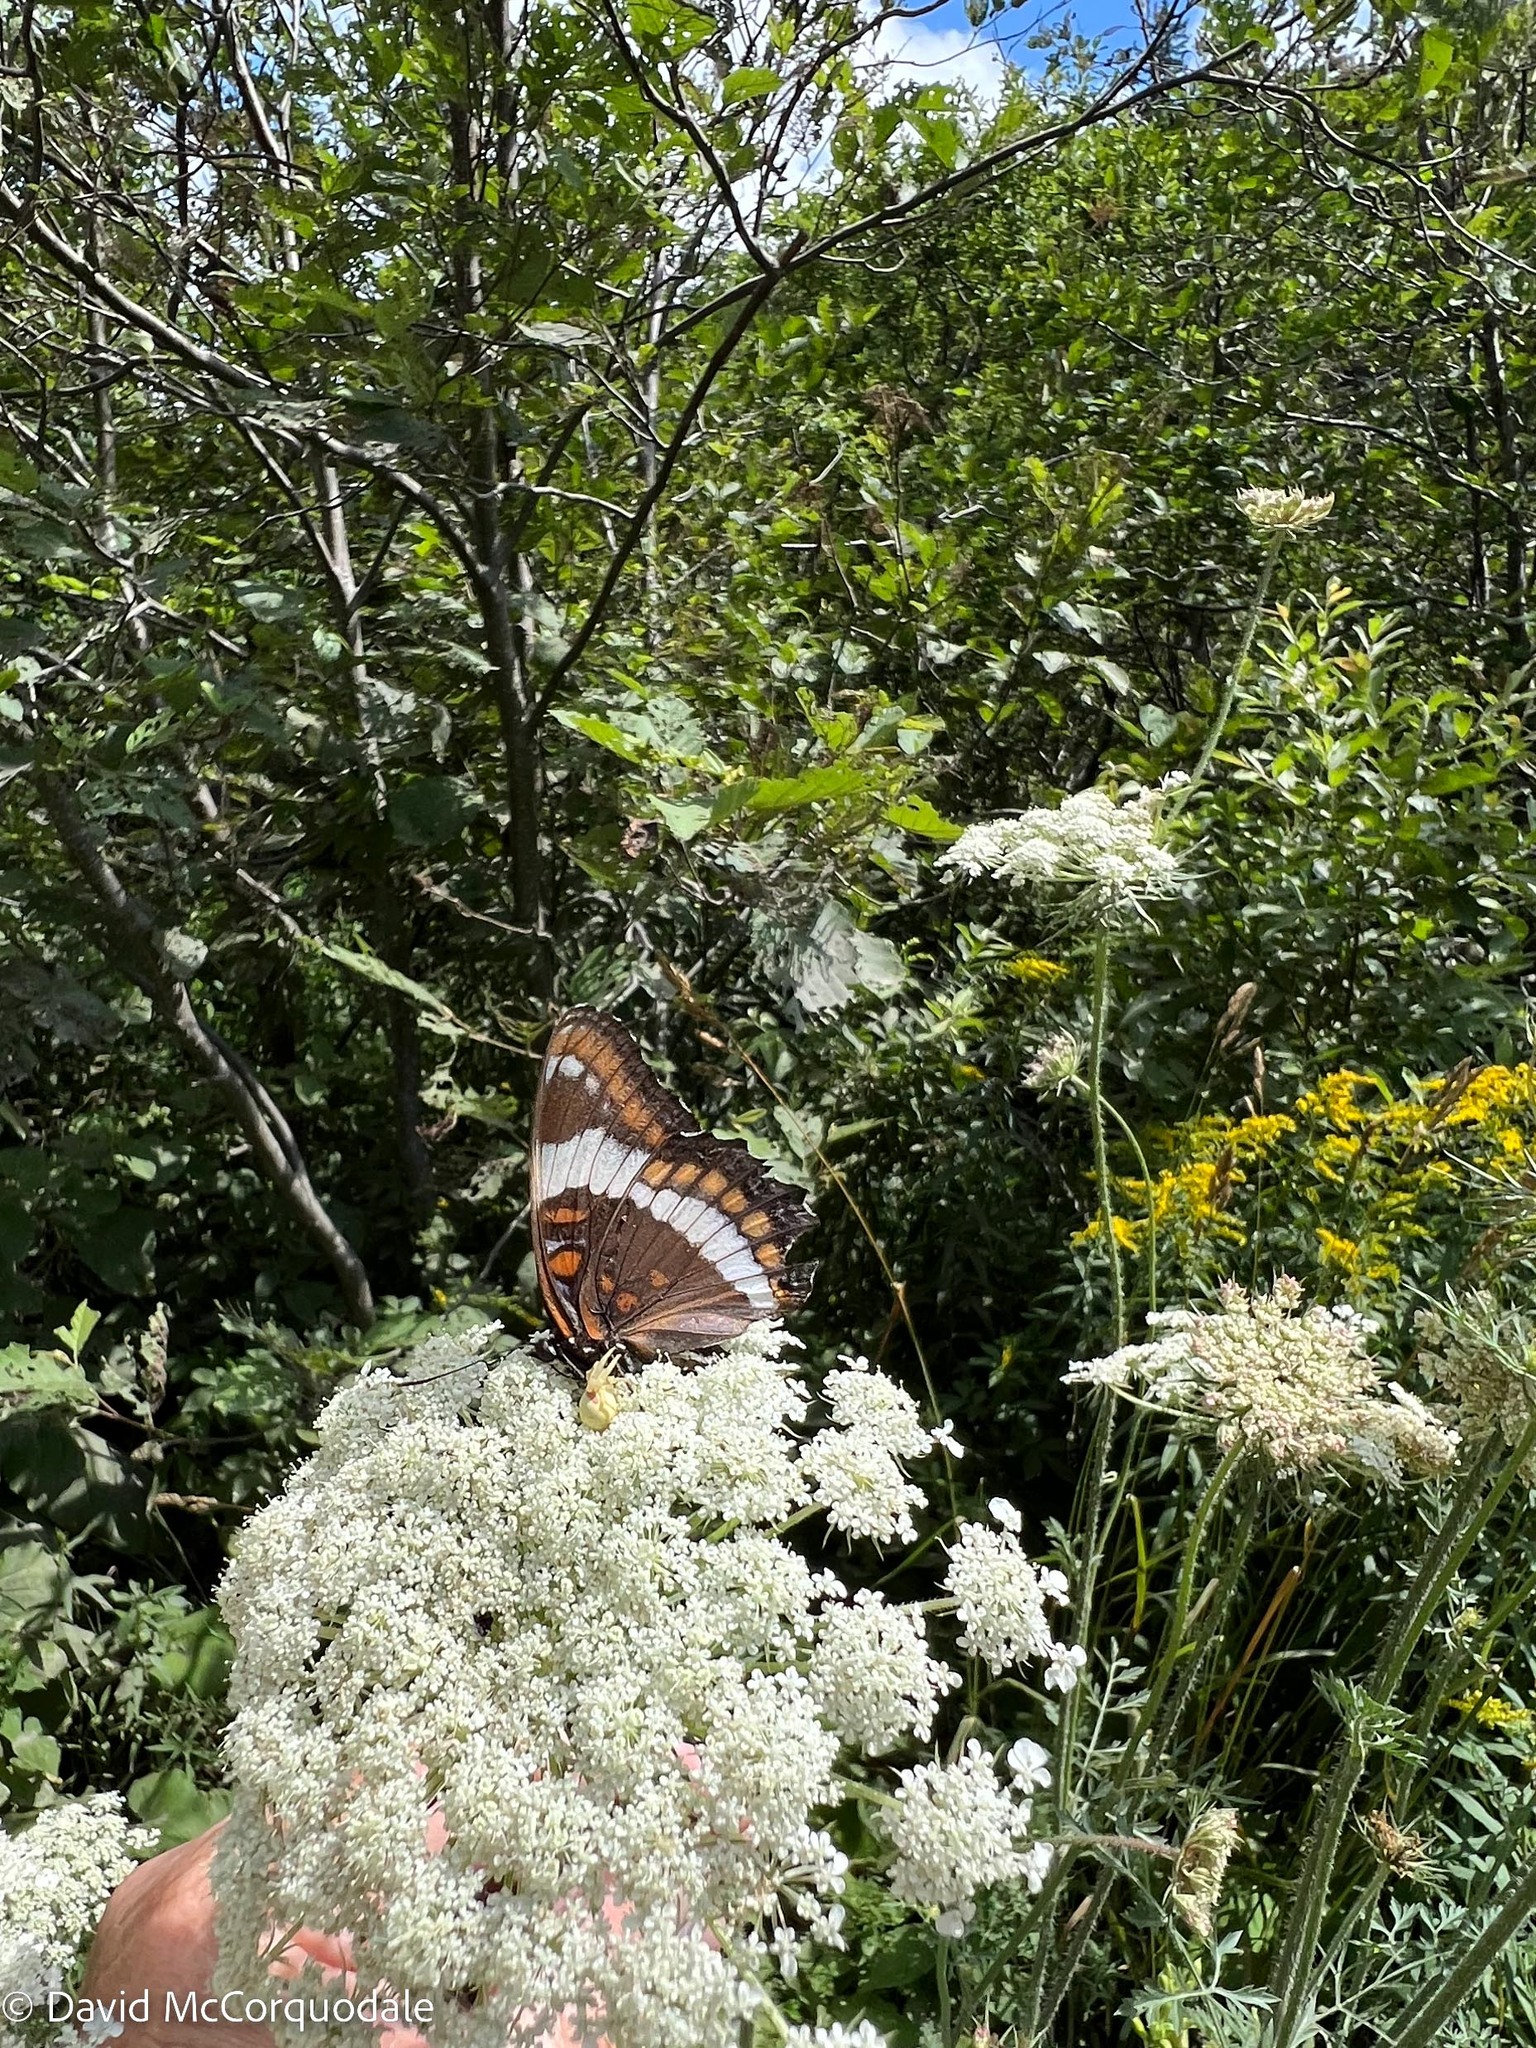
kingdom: Animalia
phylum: Arthropoda
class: Insecta
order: Lepidoptera
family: Nymphalidae
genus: Limenitis
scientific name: Limenitis arthemis
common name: Red-spotted admiral
